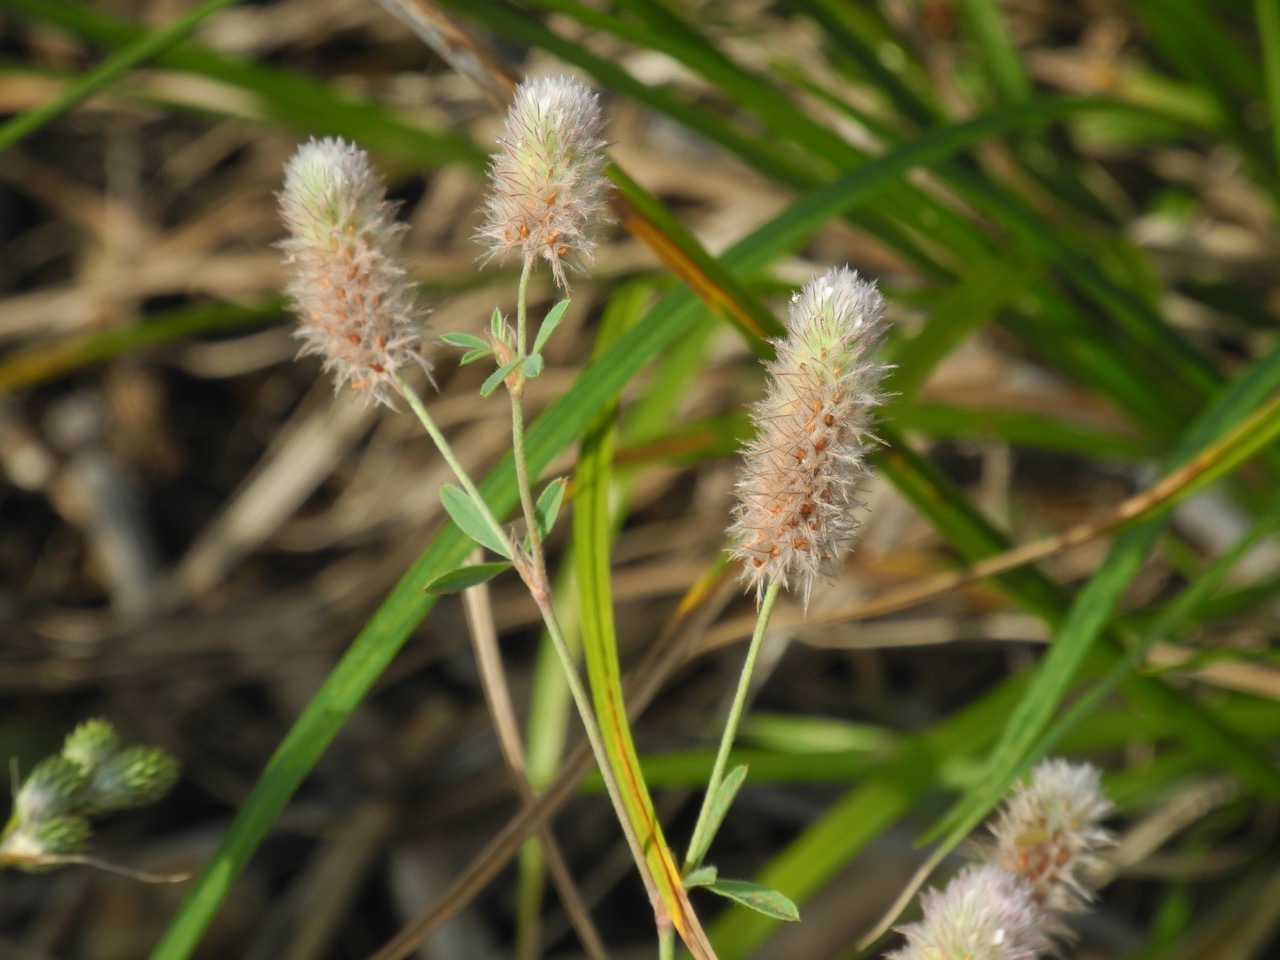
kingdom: Plantae
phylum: Tracheophyta
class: Magnoliopsida
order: Fabales
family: Fabaceae
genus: Trifolium
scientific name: Trifolium arvense
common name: Hare's-foot clover
